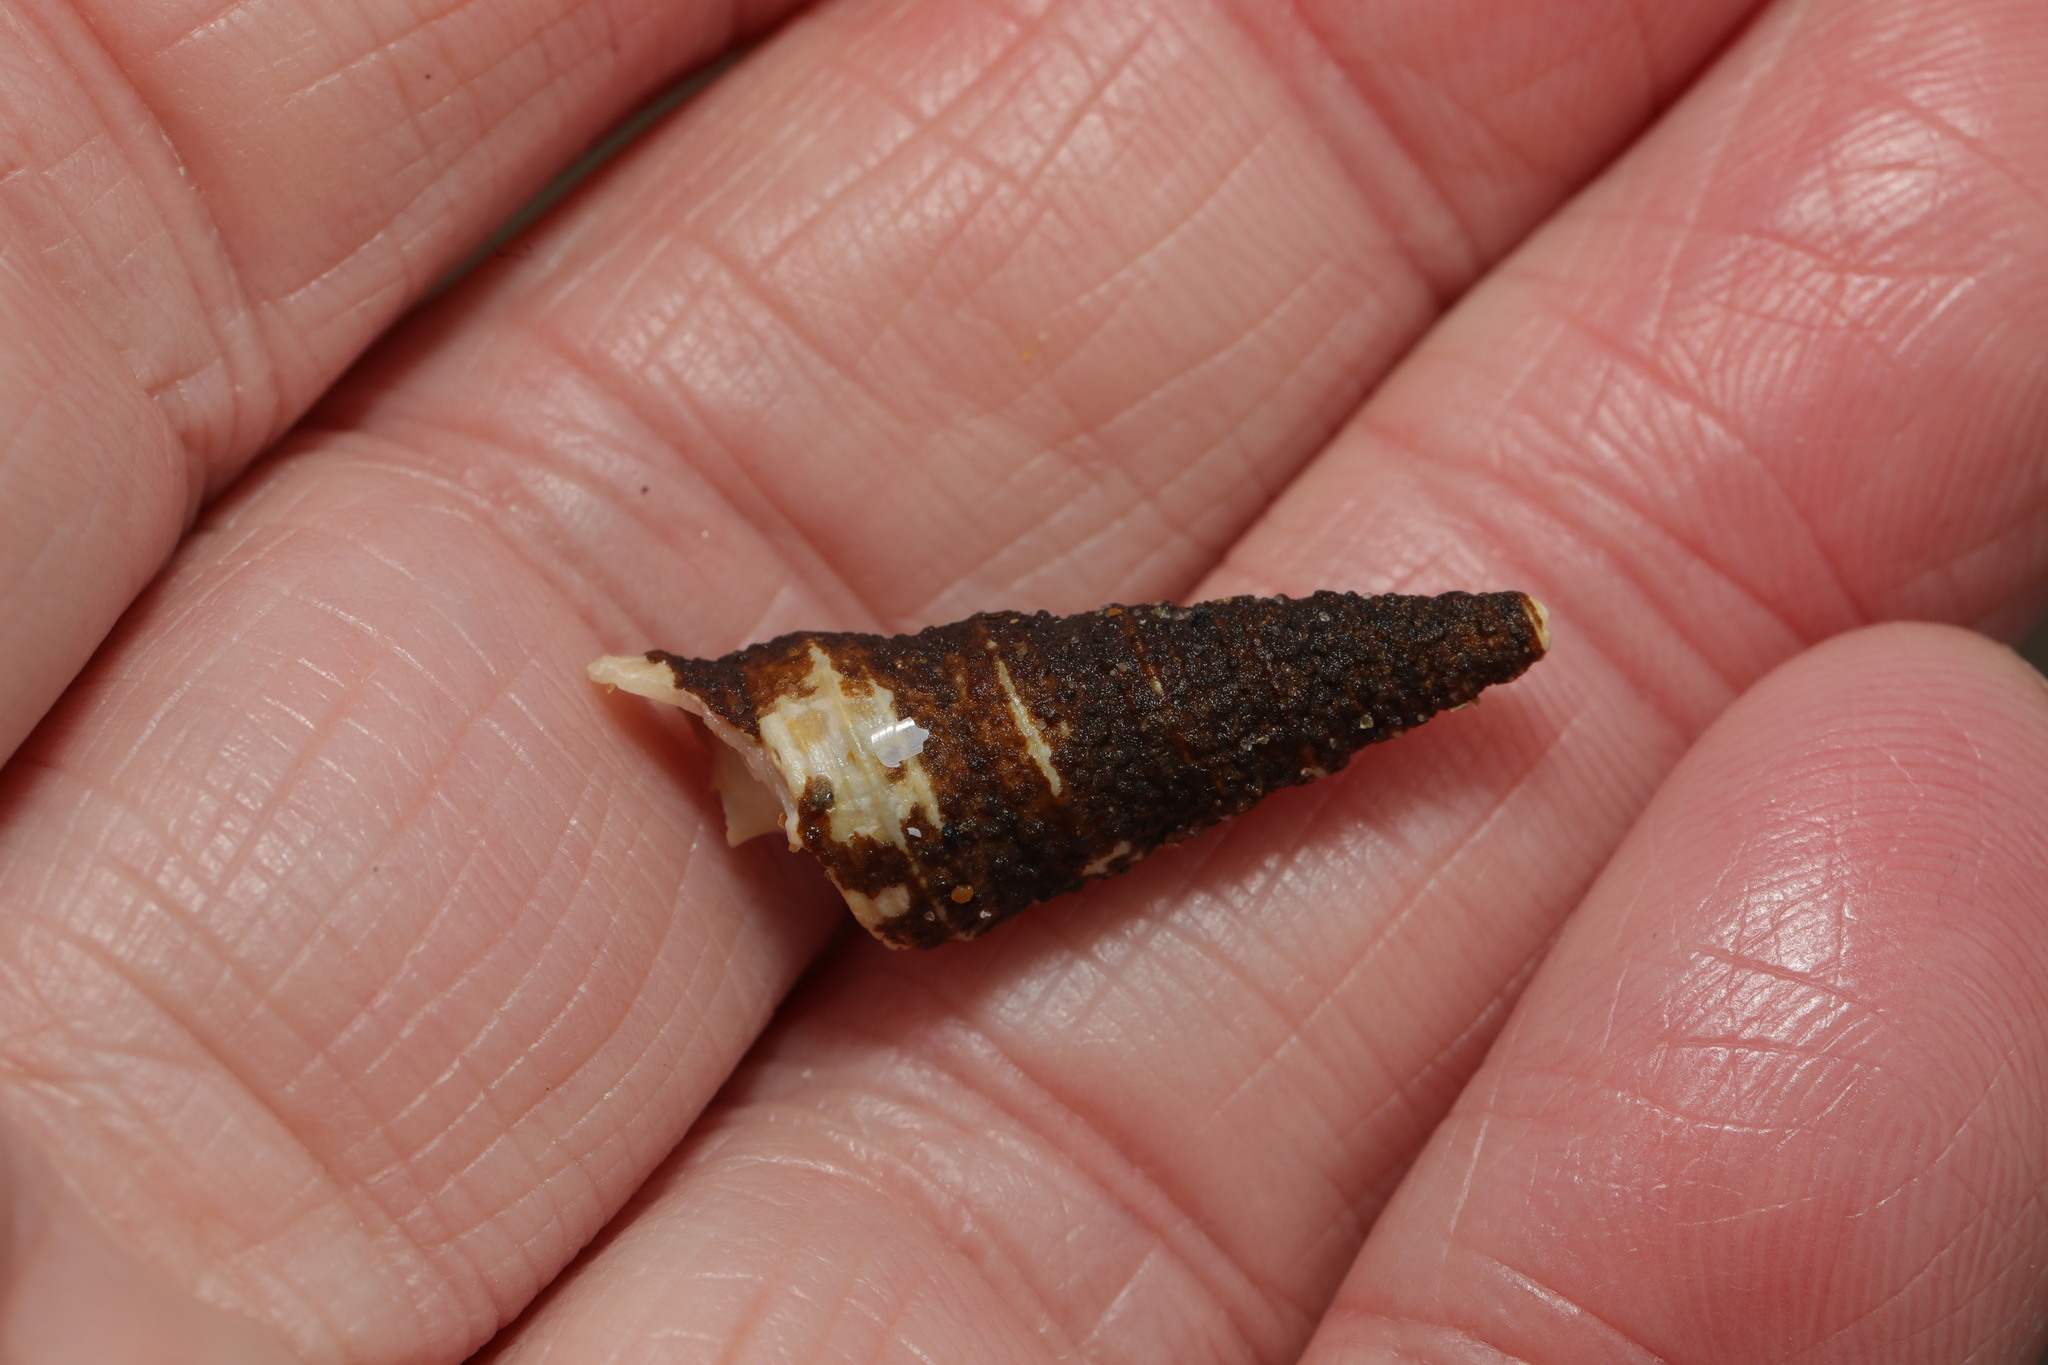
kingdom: Animalia
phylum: Cnidaria
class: Hydrozoa
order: Anthoathecata
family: Hydractiniidae
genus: Hydractinia
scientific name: Hydractinia echinata
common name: Rough hydroid
